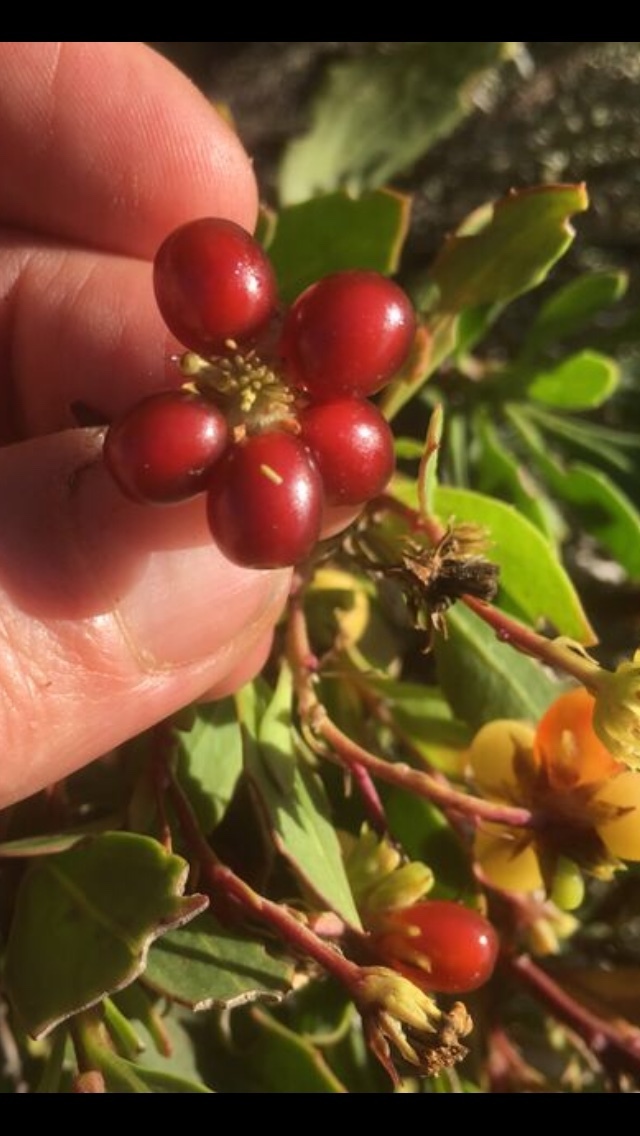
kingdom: Plantae
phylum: Tracheophyta
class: Magnoliopsida
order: Asterales
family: Asteraceae
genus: Osteospermum
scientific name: Osteospermum moniliferum
